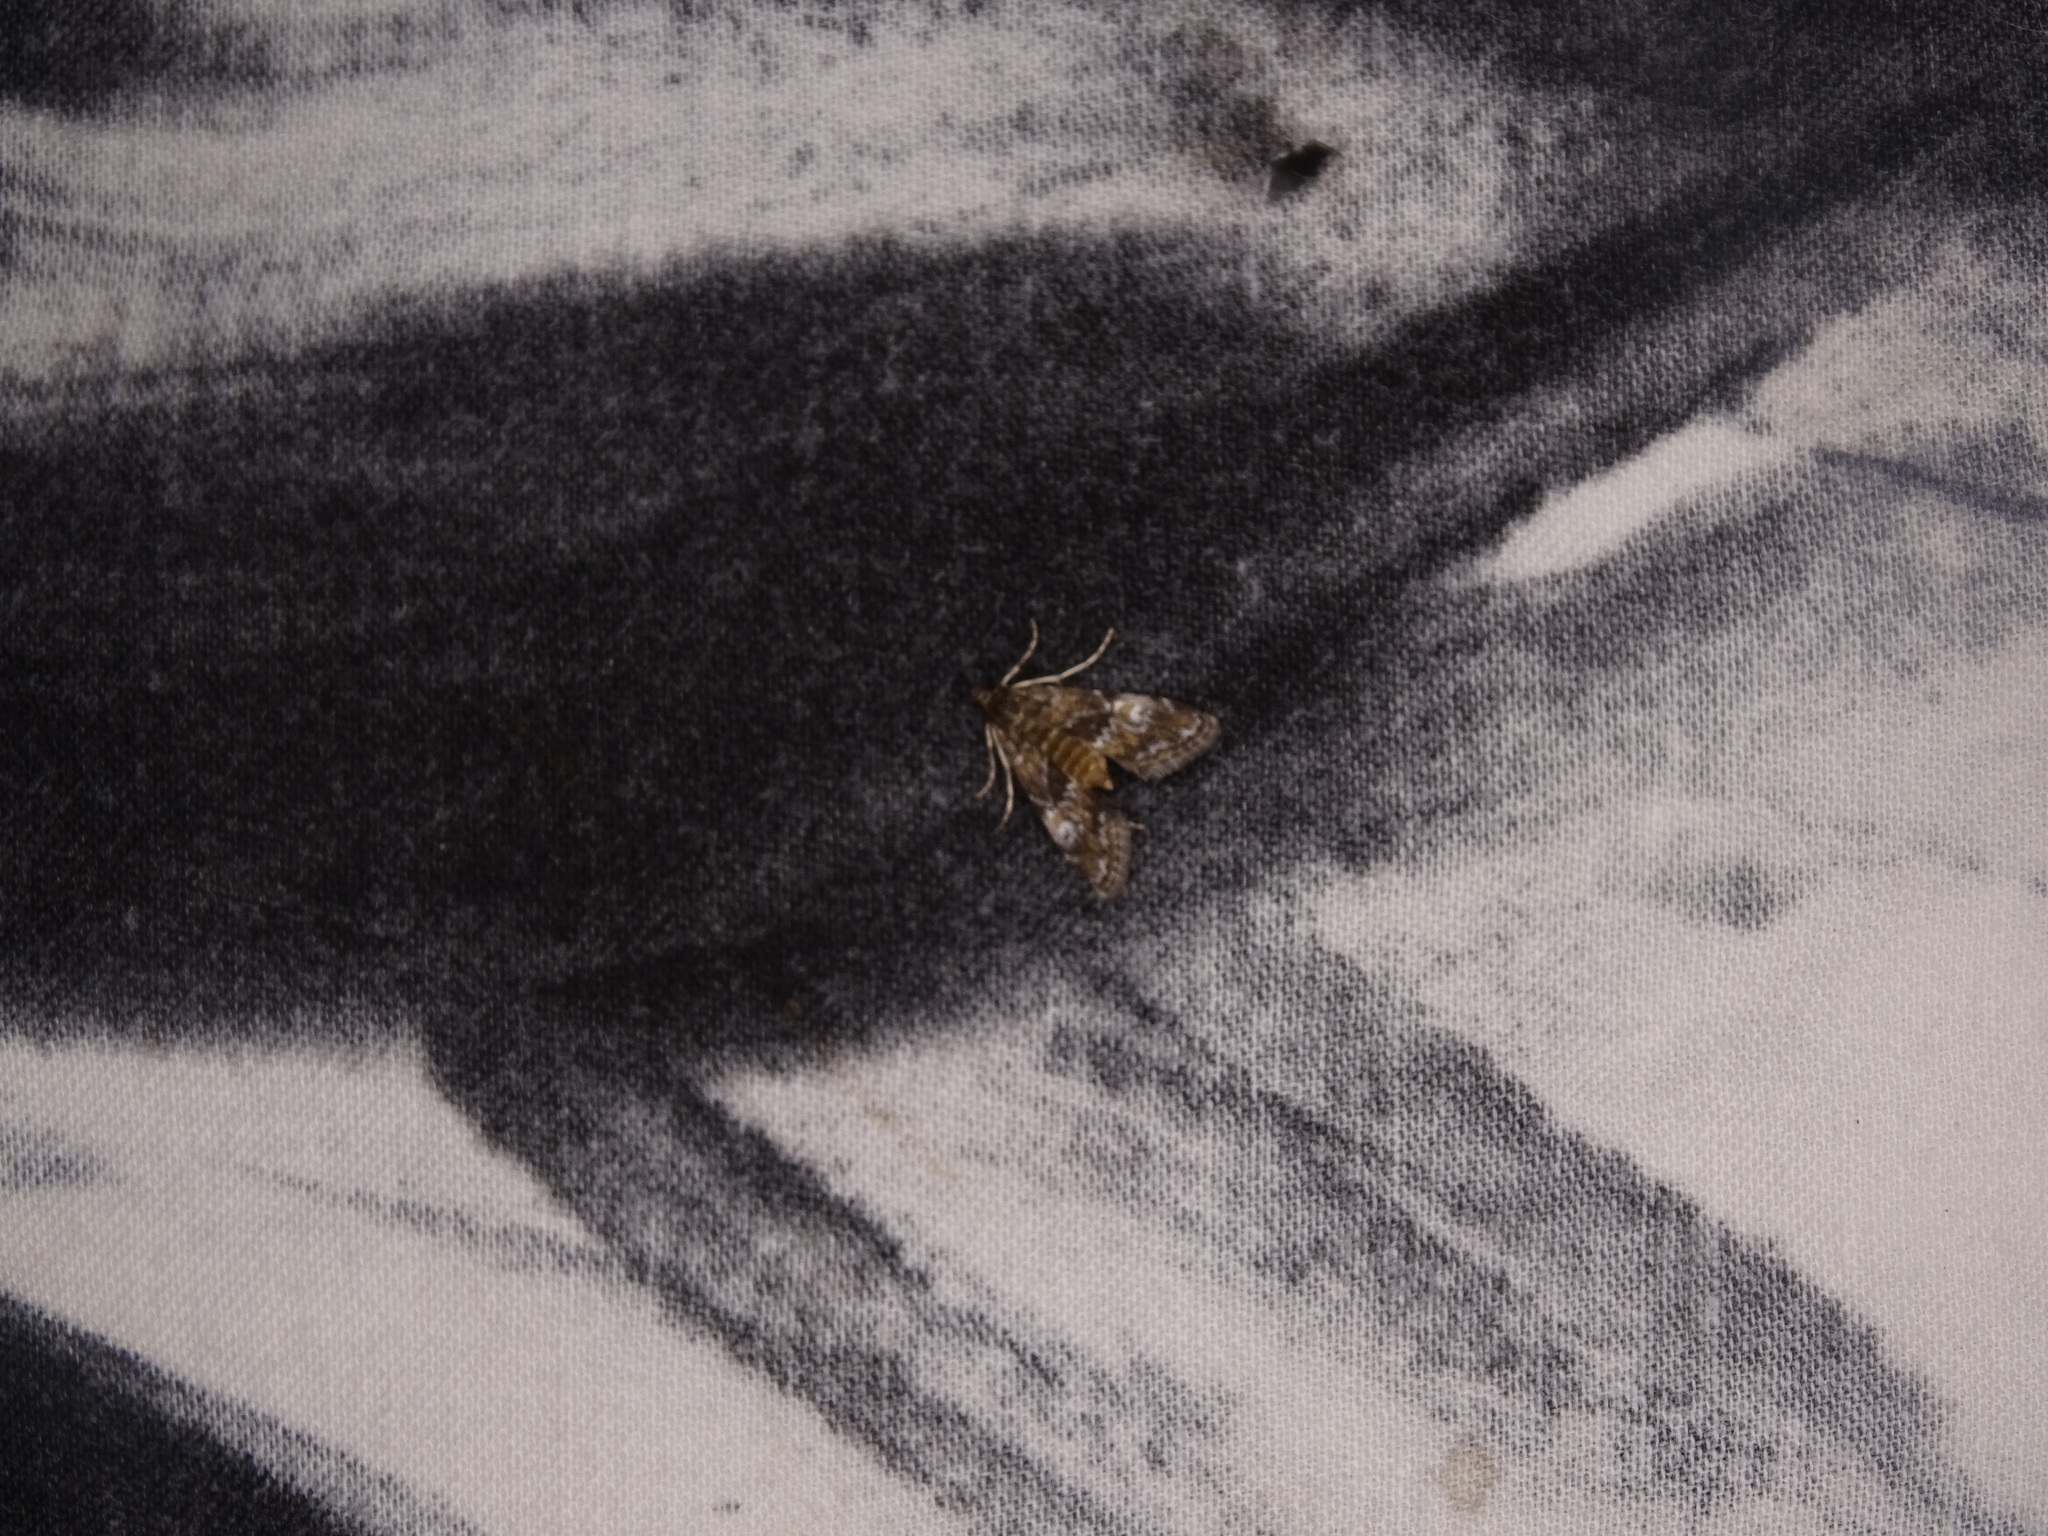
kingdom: Animalia
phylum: Arthropoda
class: Insecta
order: Lepidoptera
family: Crambidae
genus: Elophila
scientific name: Elophila obliteralis
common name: Waterlily leafcutter moth
